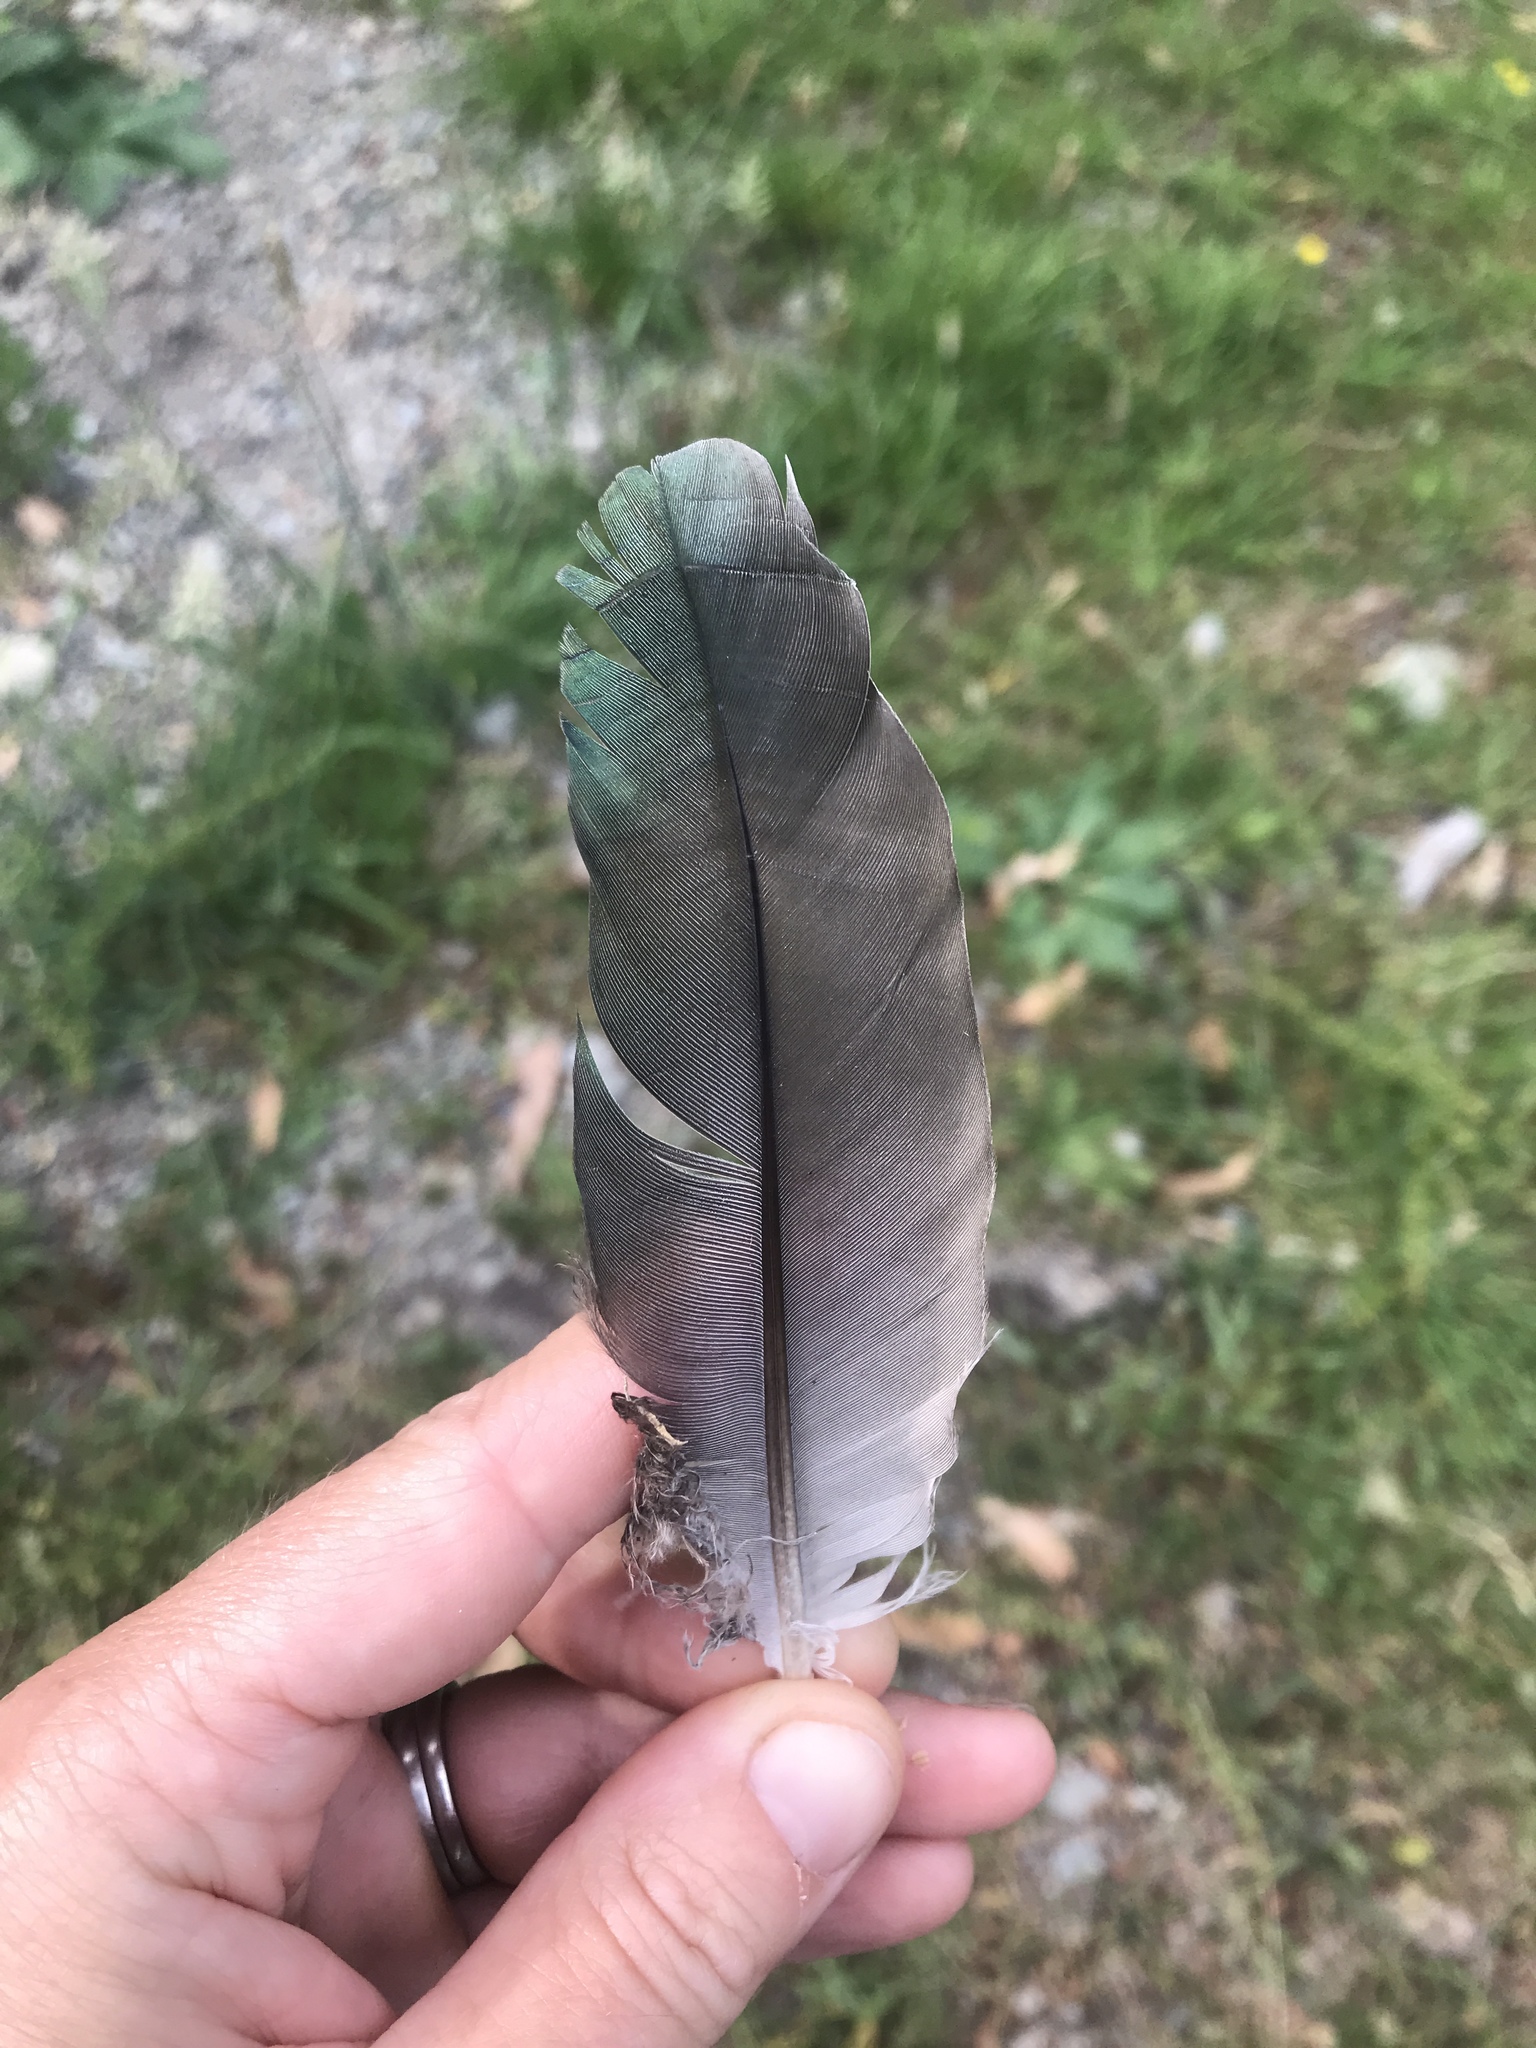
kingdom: Animalia
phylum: Chordata
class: Aves
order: Columbiformes
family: Columbidae
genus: Hemiphaga
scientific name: Hemiphaga novaeseelandiae
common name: New zealand pigeon
